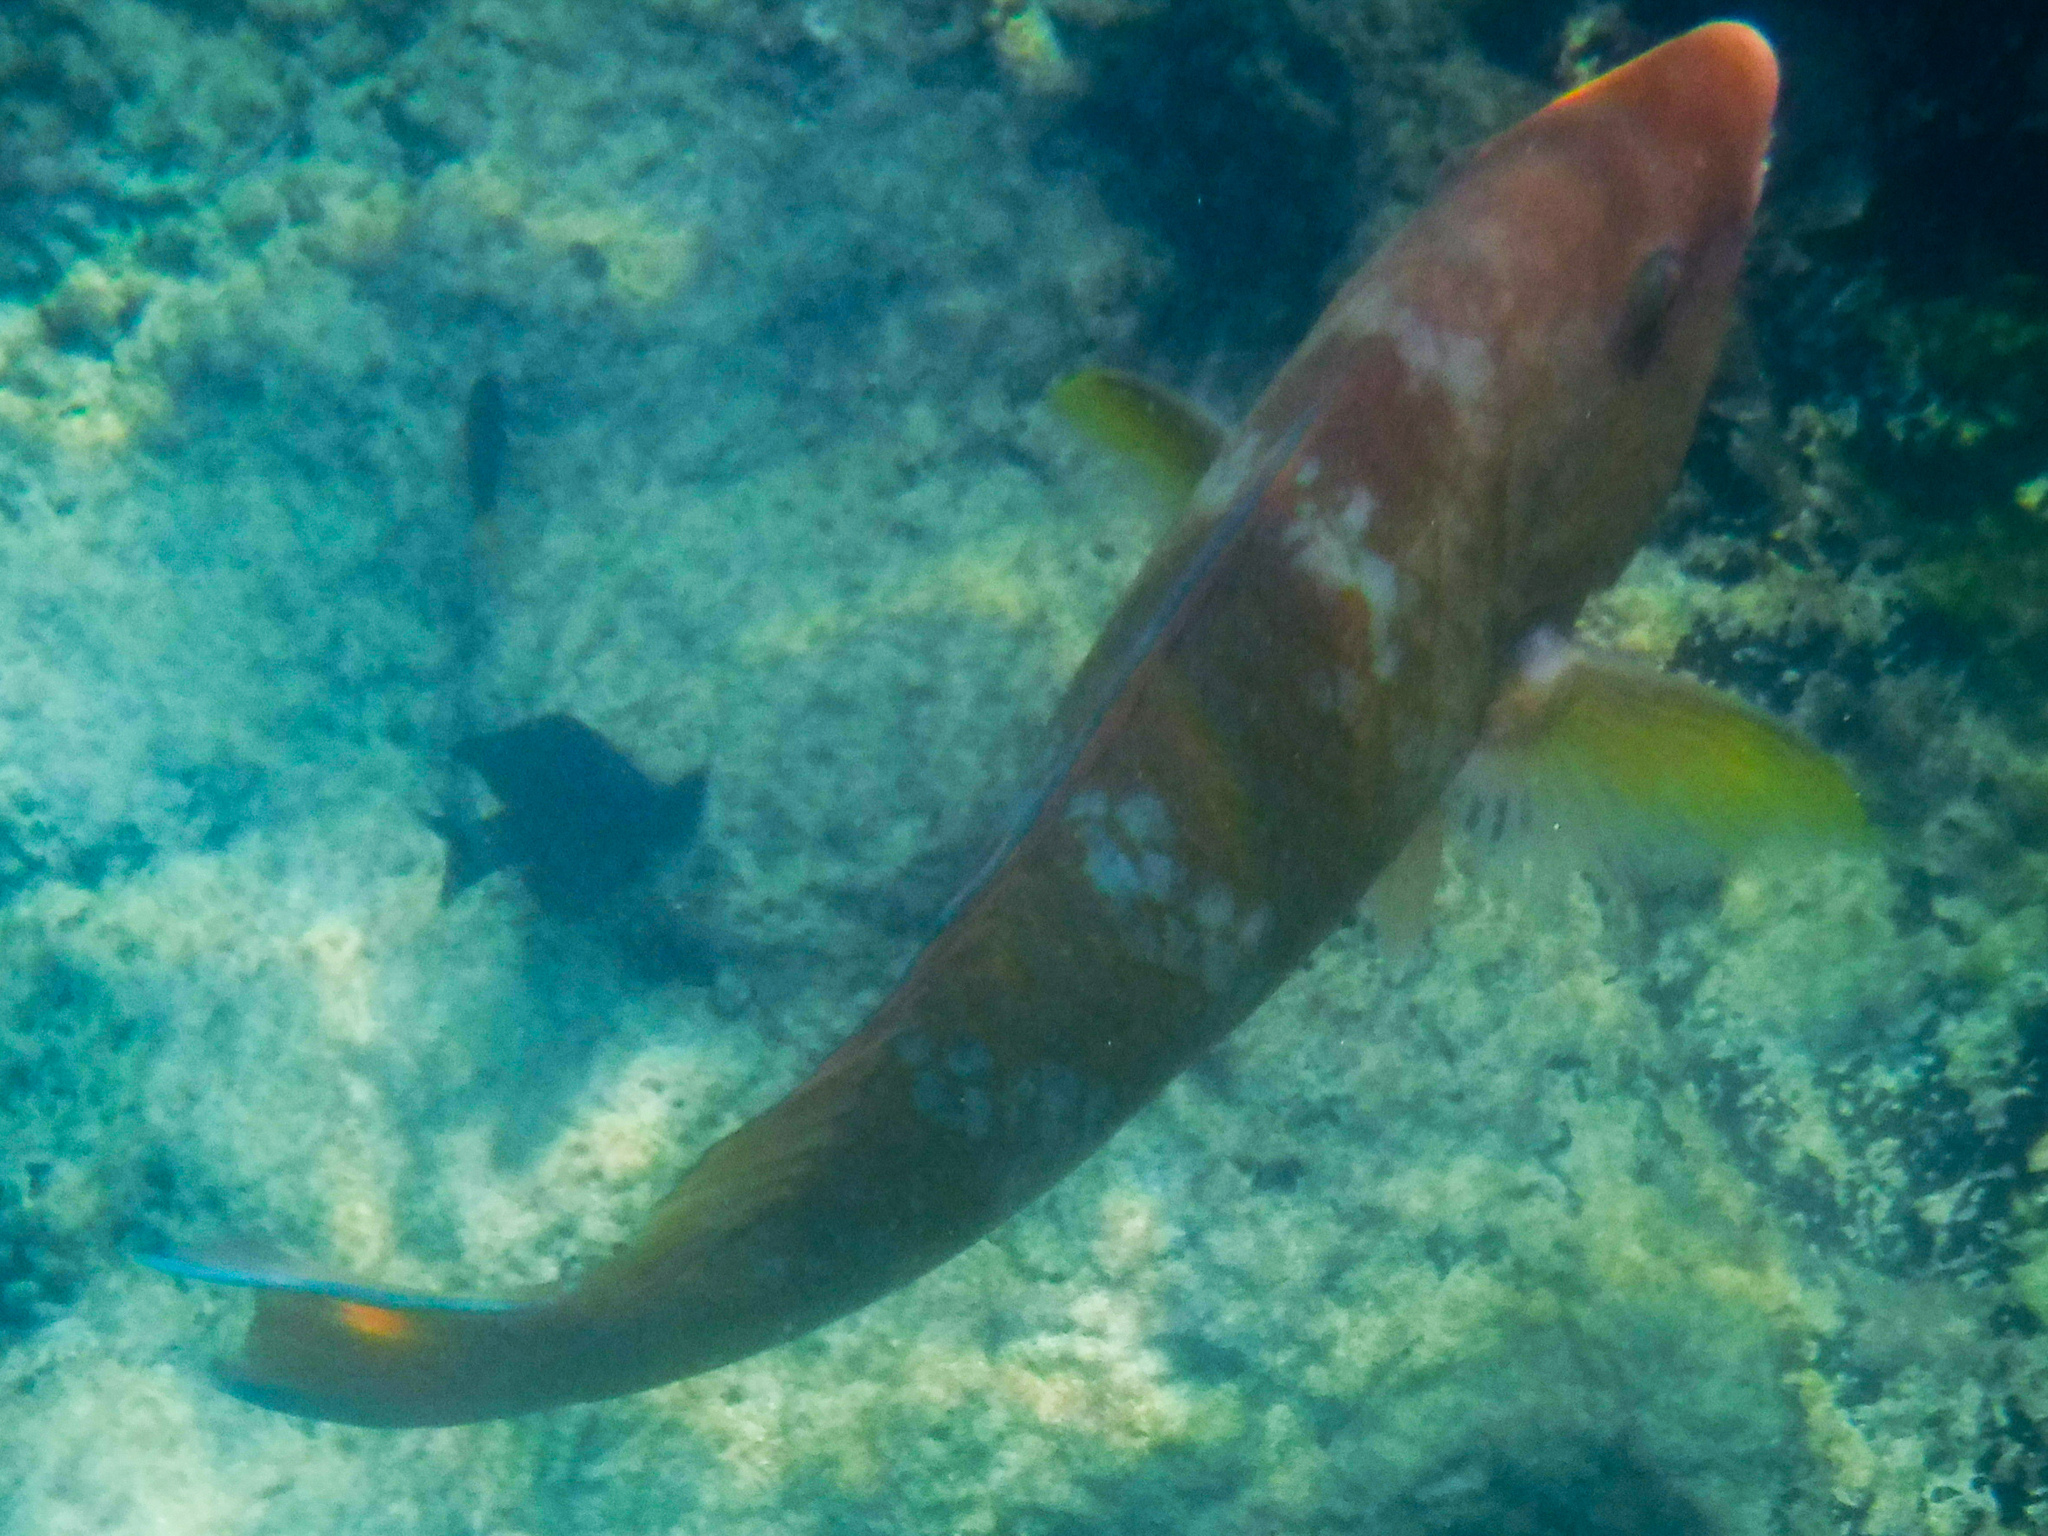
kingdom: Animalia
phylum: Chordata
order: Perciformes
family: Scaridae
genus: Scarus
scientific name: Scarus ghobban
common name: Blue-barred parrotfish
